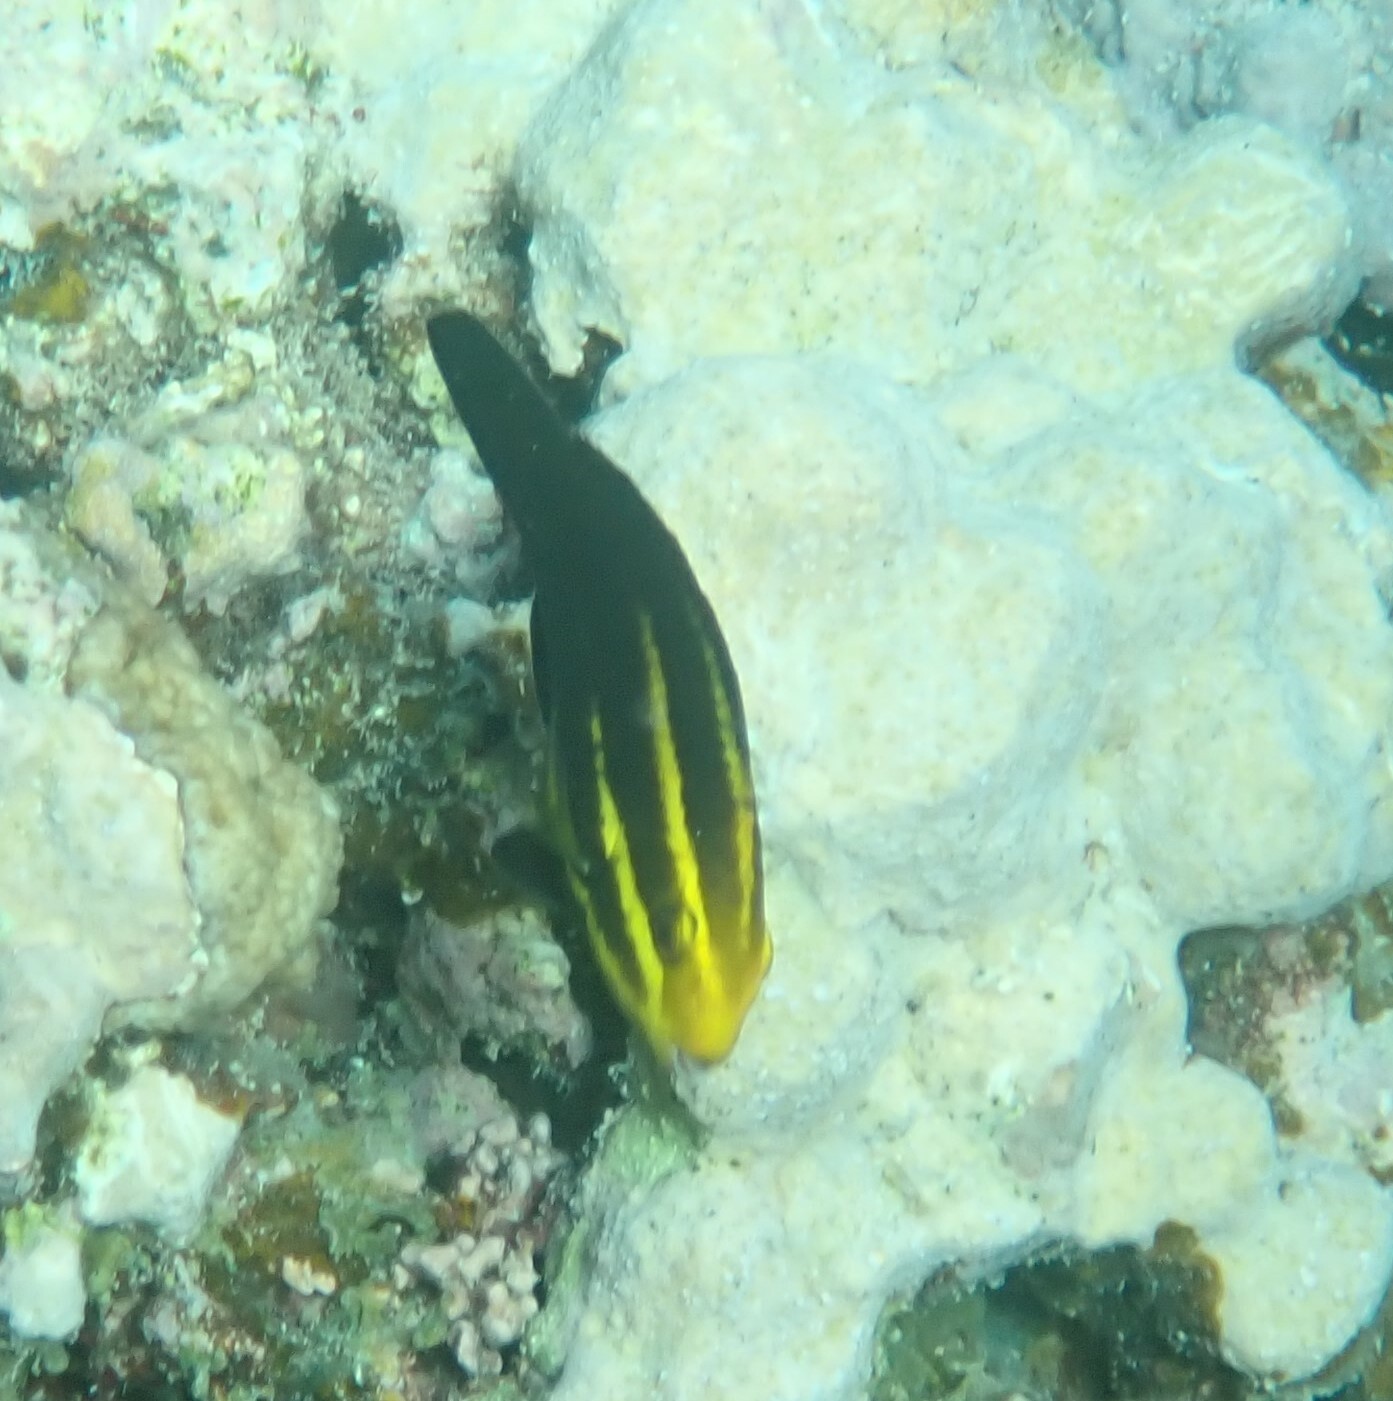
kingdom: Animalia
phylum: Chordata
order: Perciformes
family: Scaridae
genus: Chlorurus
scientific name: Chlorurus gibbus
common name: Heavybeak parrotfish
